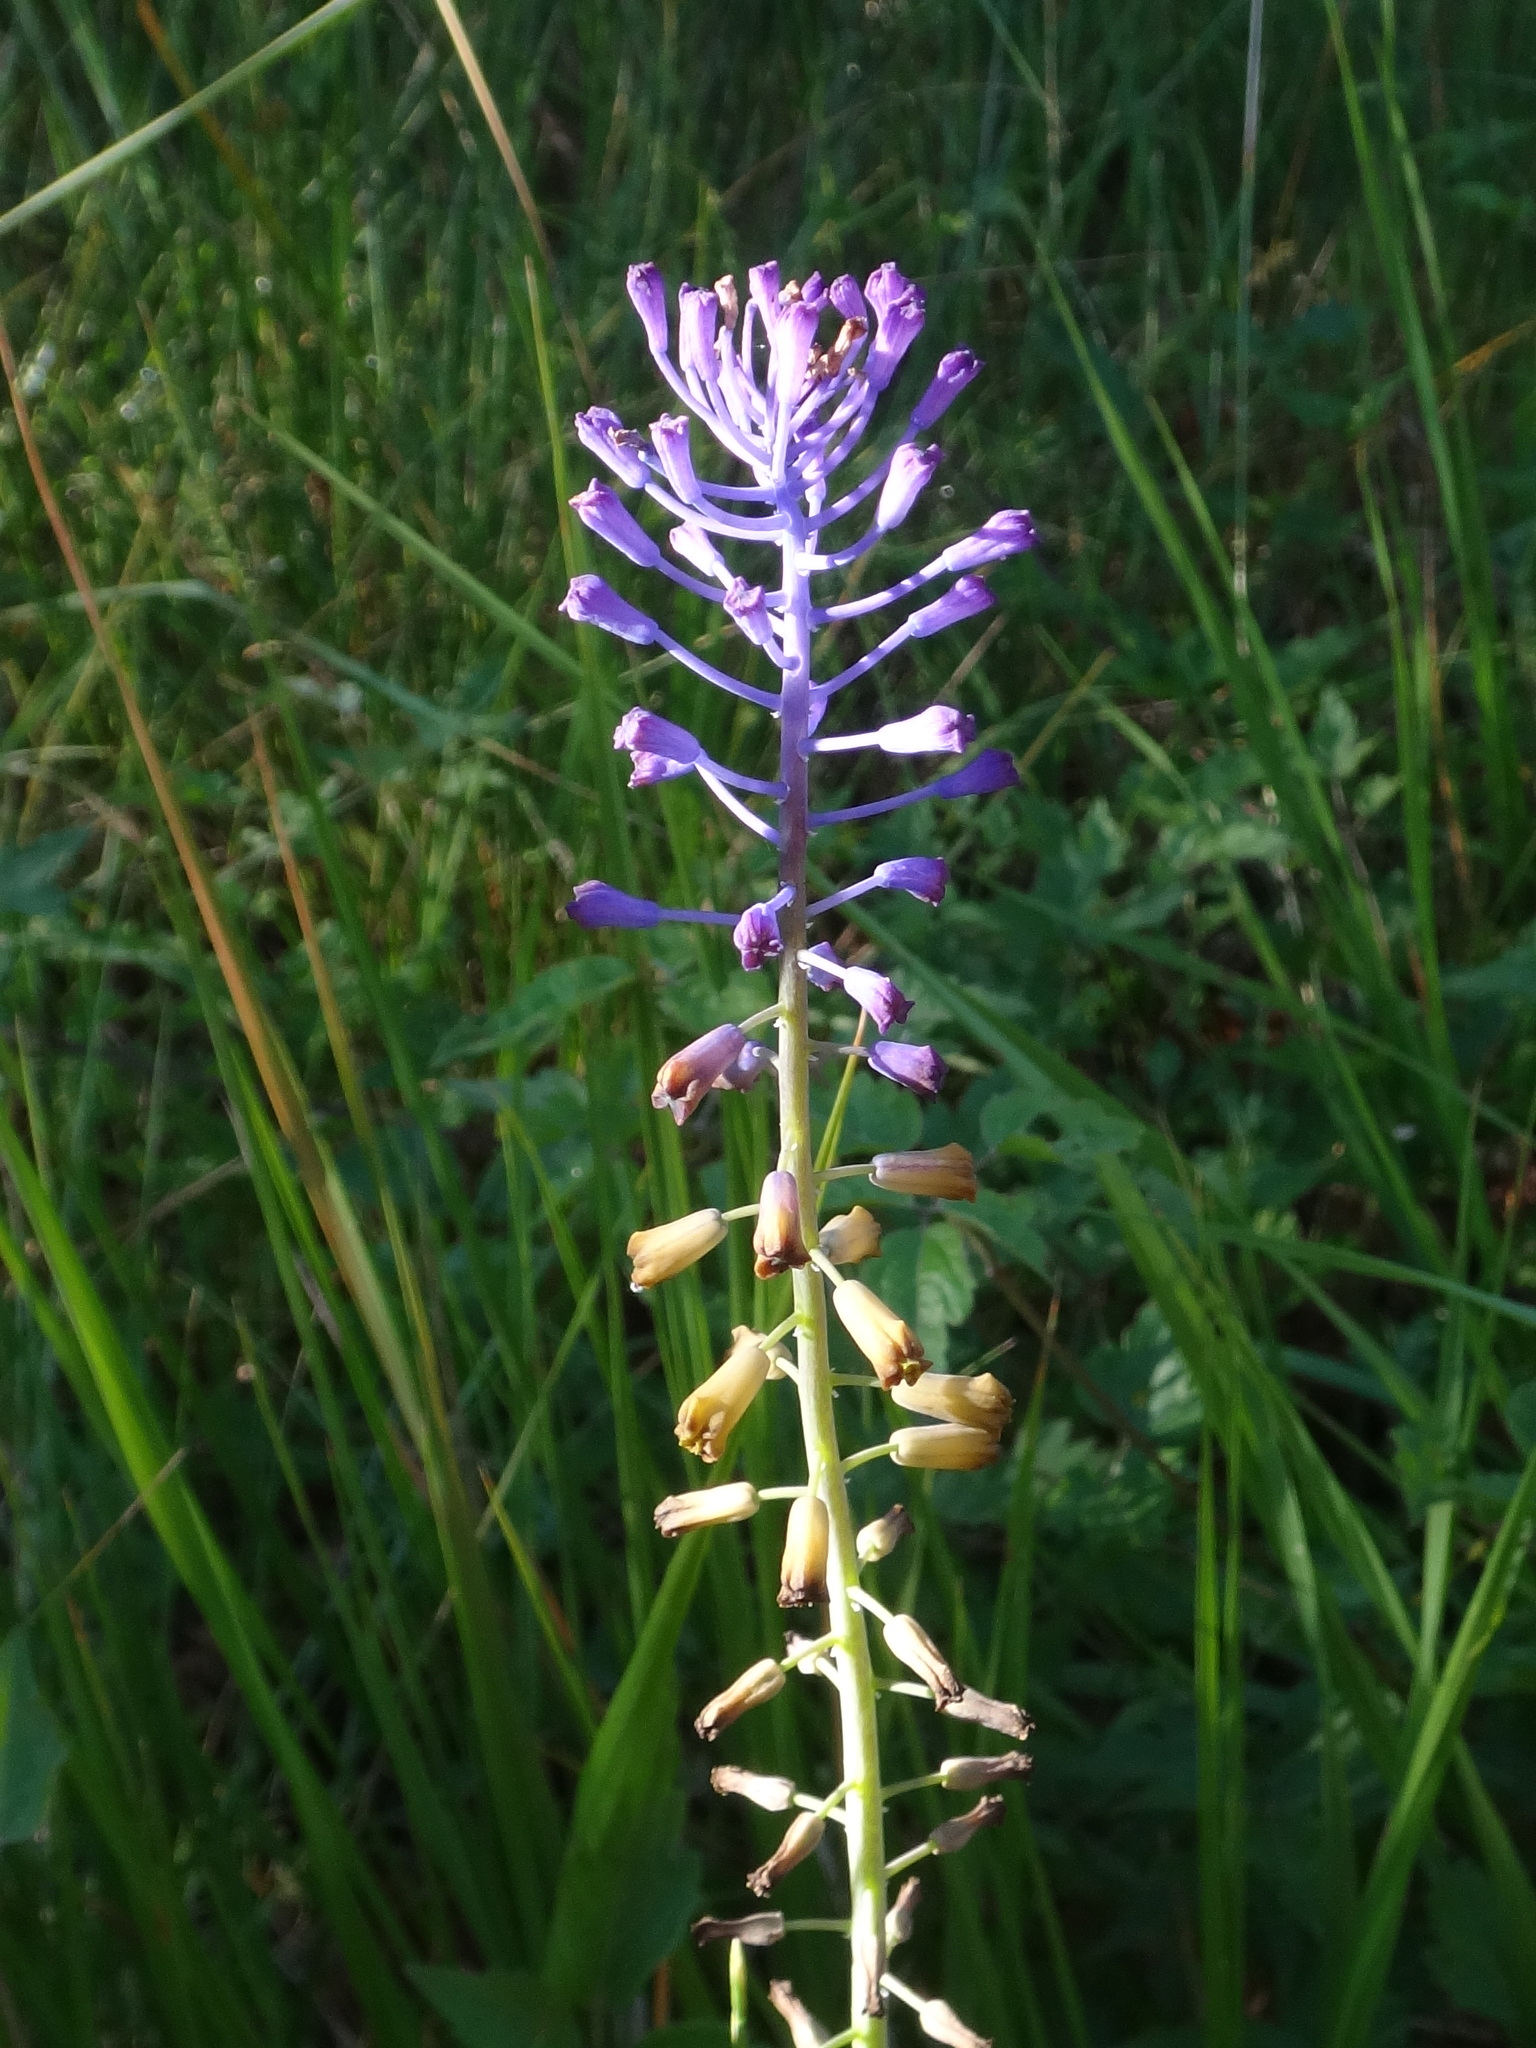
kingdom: Plantae
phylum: Tracheophyta
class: Liliopsida
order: Asparagales
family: Asparagaceae
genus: Muscari
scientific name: Muscari comosum
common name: Tassel hyacinth
